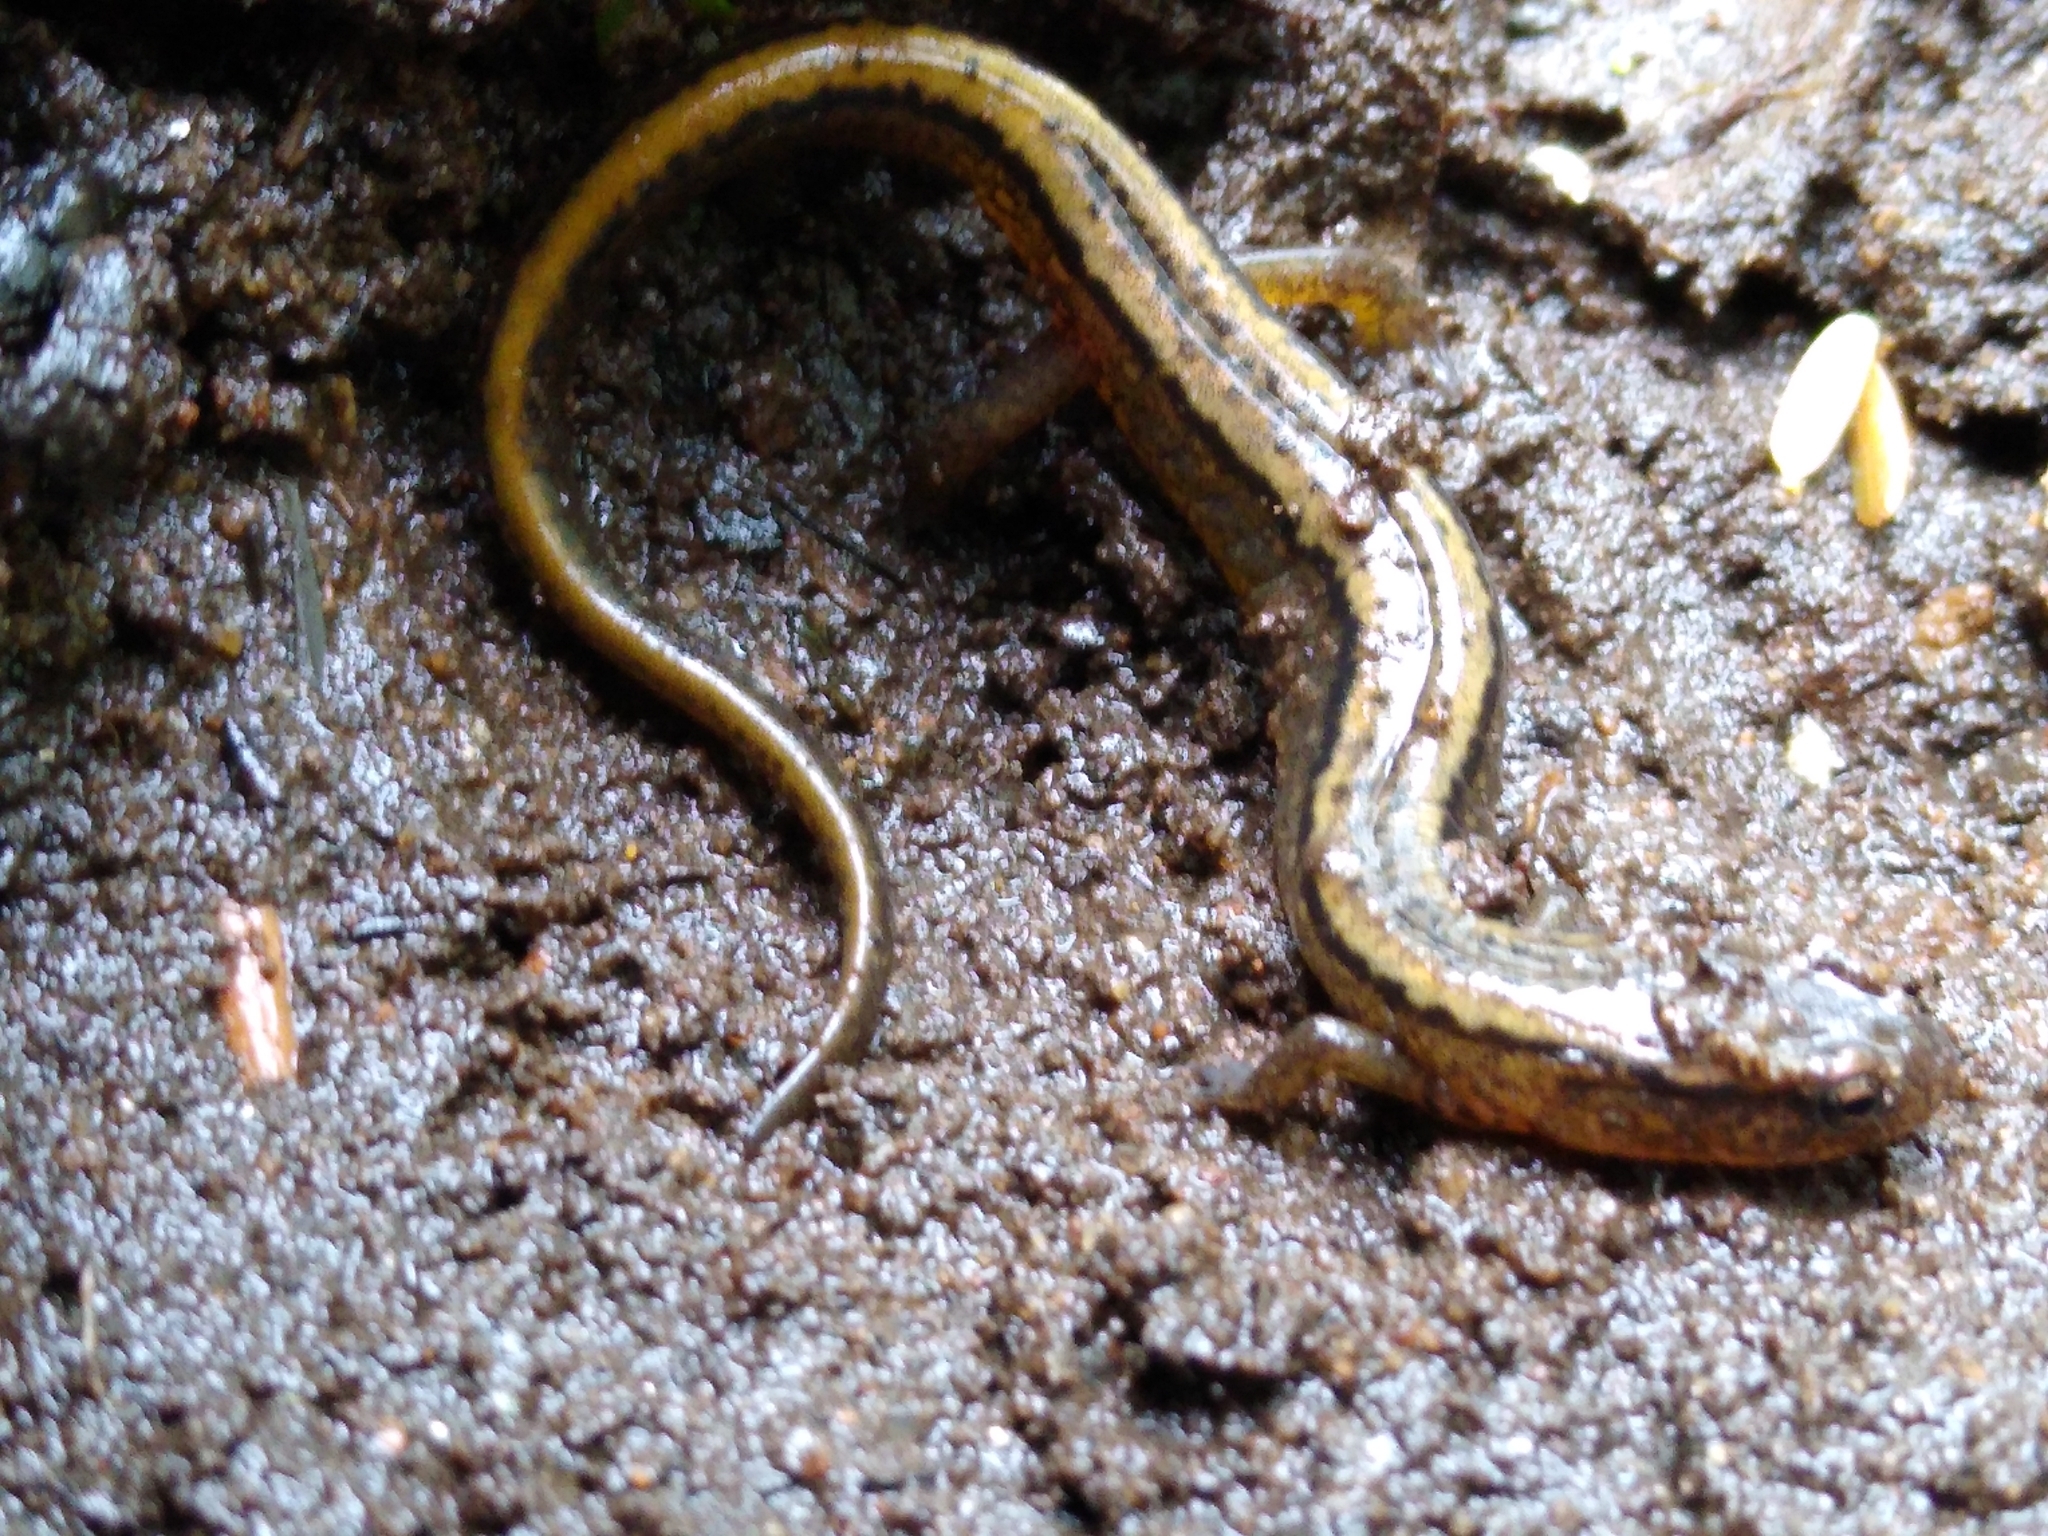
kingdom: Animalia
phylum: Chordata
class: Amphibia
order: Caudata
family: Plethodontidae
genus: Eurycea
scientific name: Eurycea bislineata
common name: Northern two-lined salamander
